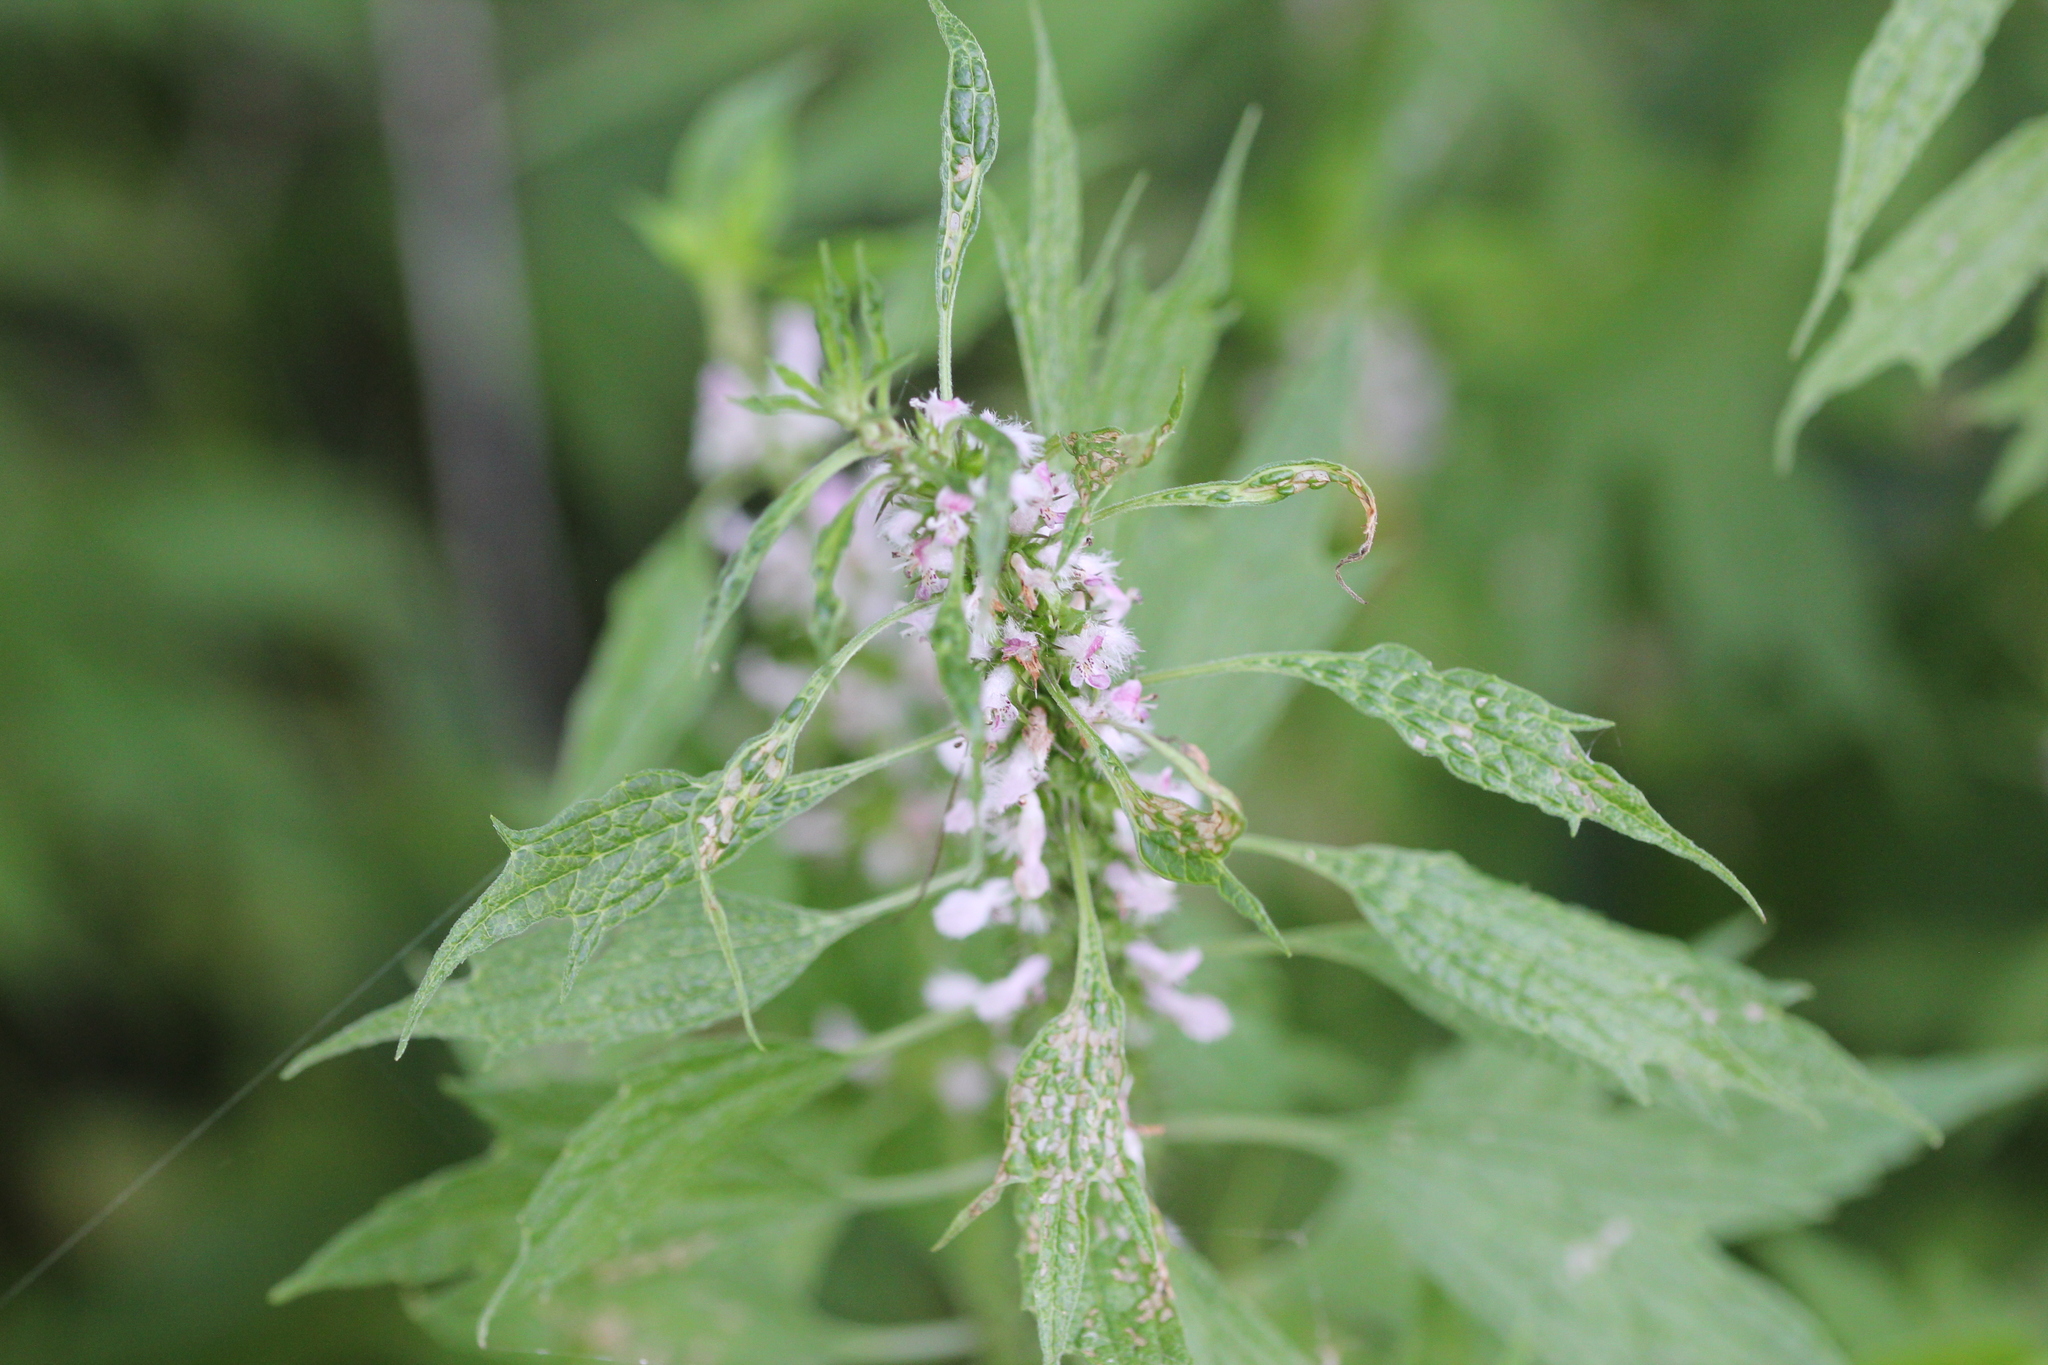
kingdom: Plantae
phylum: Tracheophyta
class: Magnoliopsida
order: Lamiales
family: Lamiaceae
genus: Leonurus
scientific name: Leonurus cardiaca
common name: Motherwort
